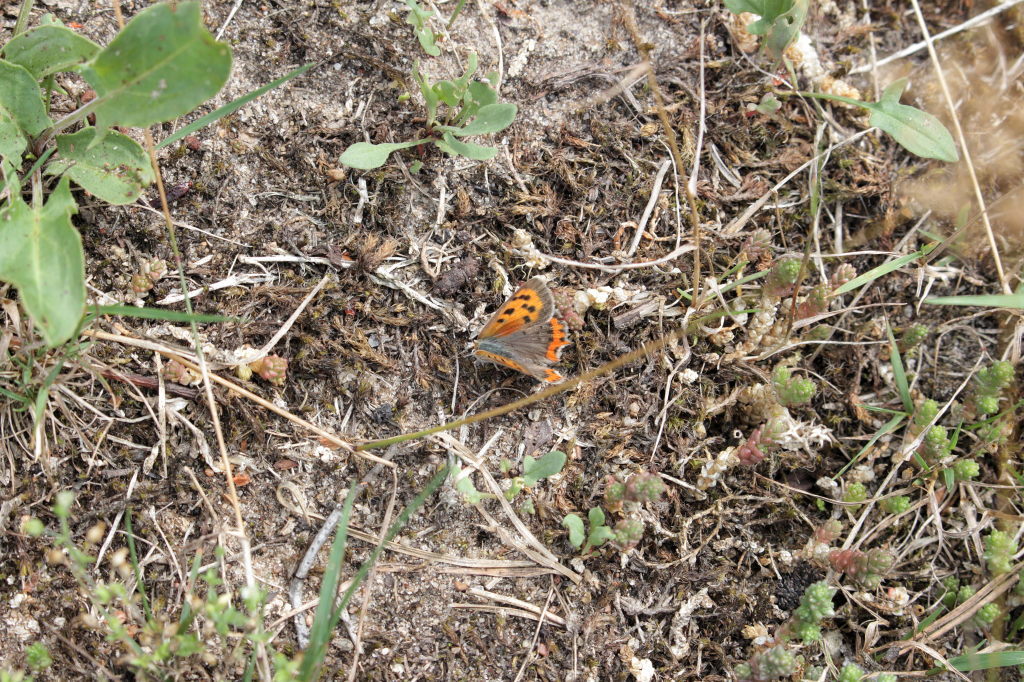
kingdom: Animalia
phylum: Arthropoda
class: Insecta
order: Lepidoptera
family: Lycaenidae
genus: Lycaena
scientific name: Lycaena phlaeas
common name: Small copper
